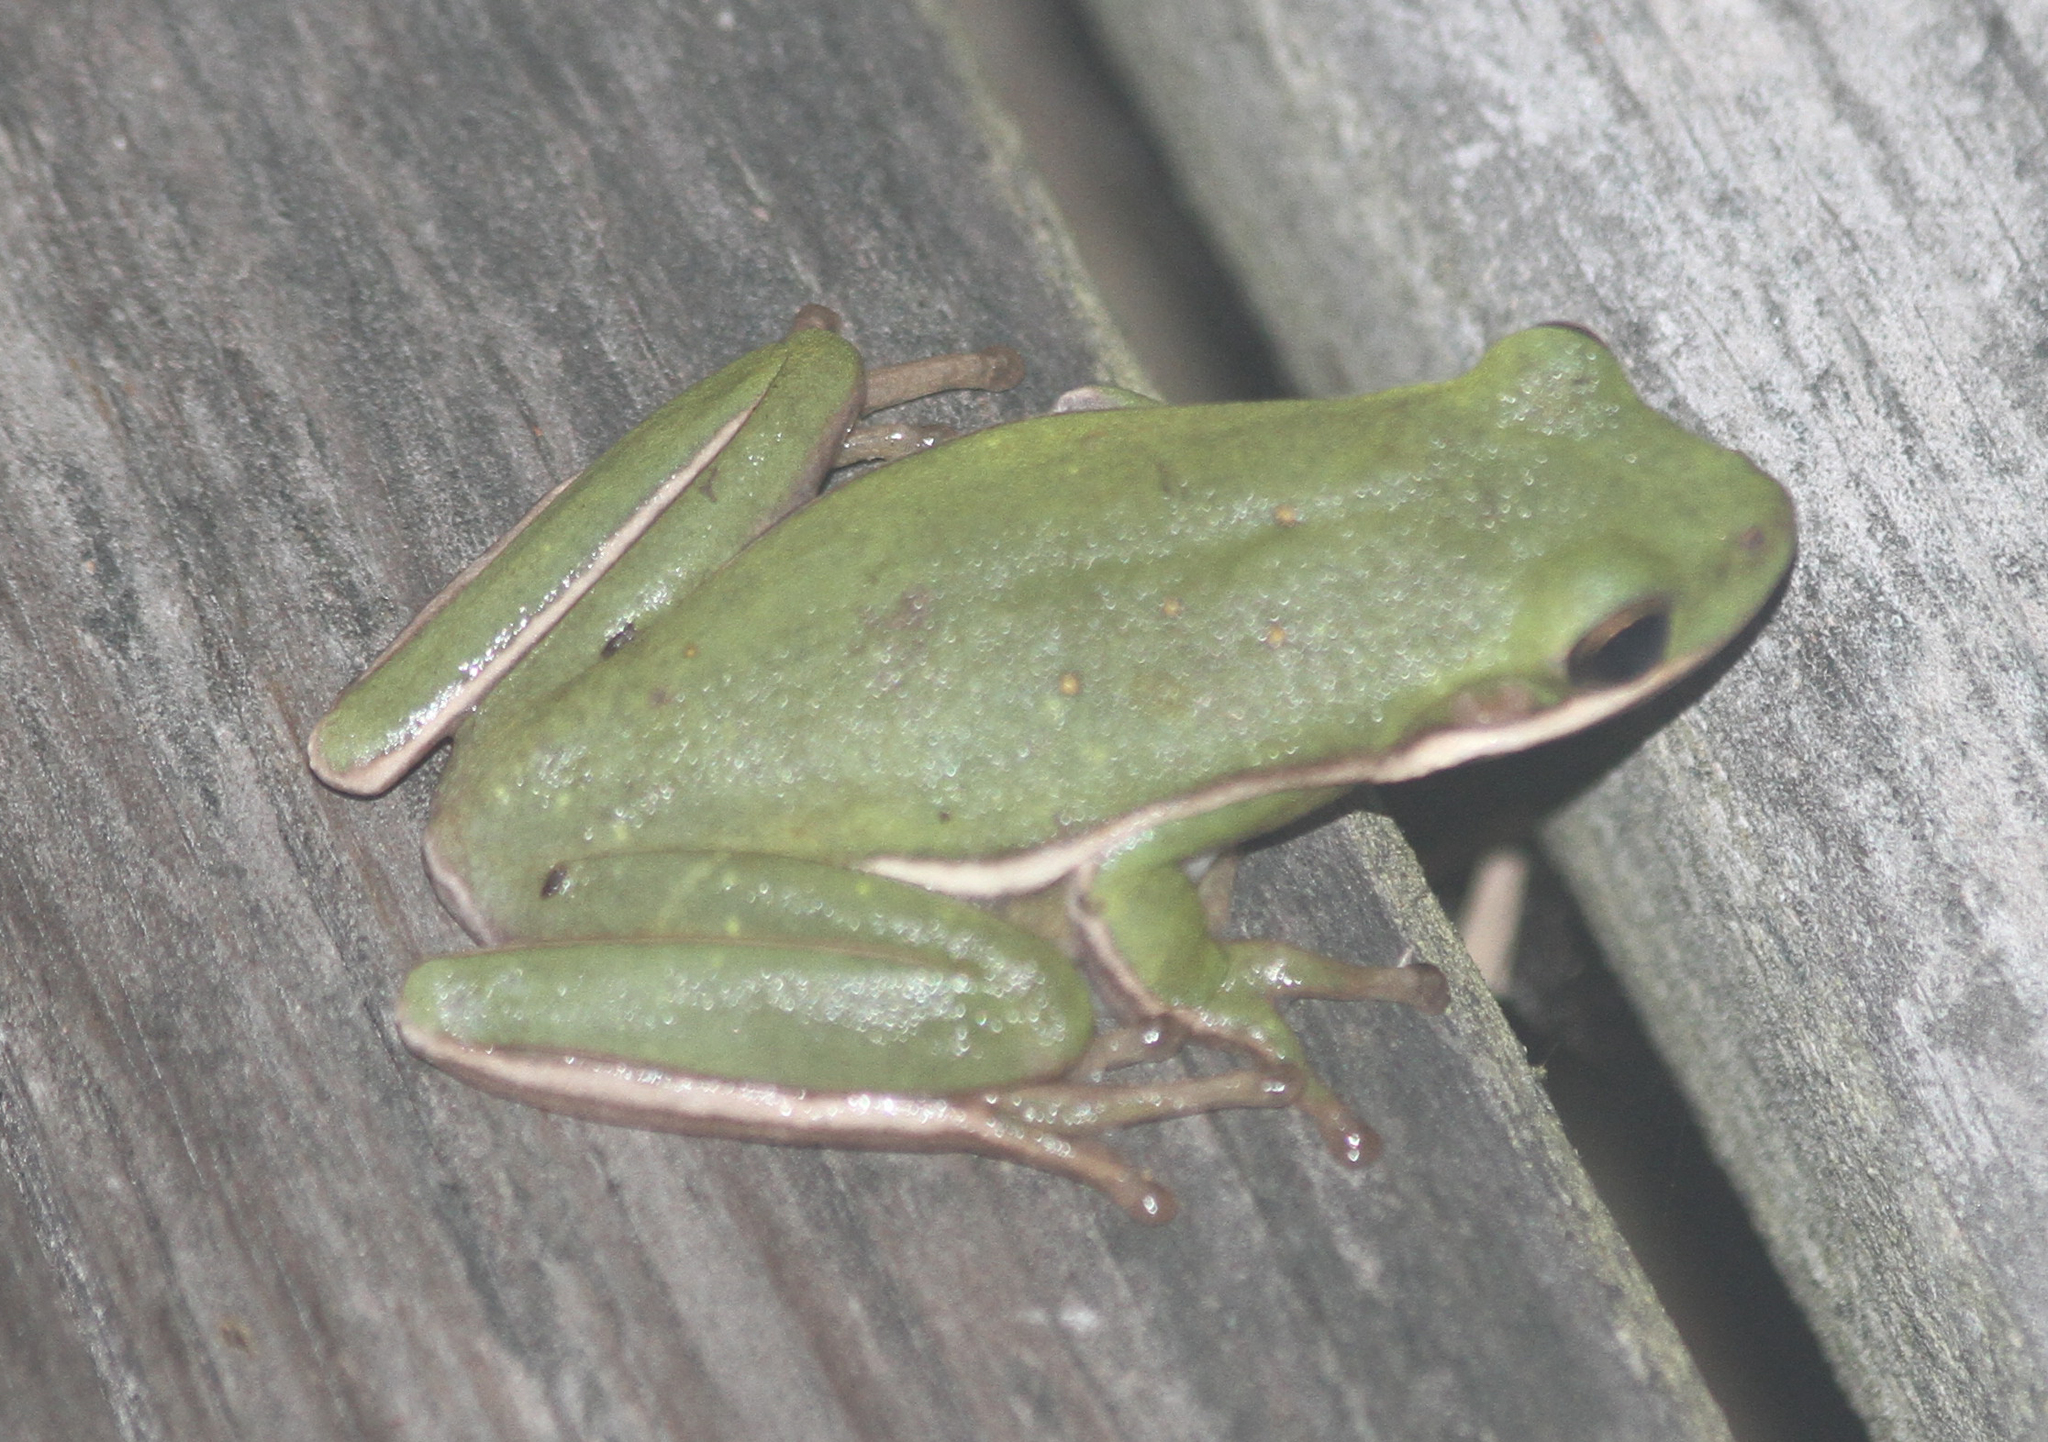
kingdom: Animalia
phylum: Chordata
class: Amphibia
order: Anura
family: Hylidae
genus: Dryophytes
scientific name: Dryophytes cinereus
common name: Green treefrog
